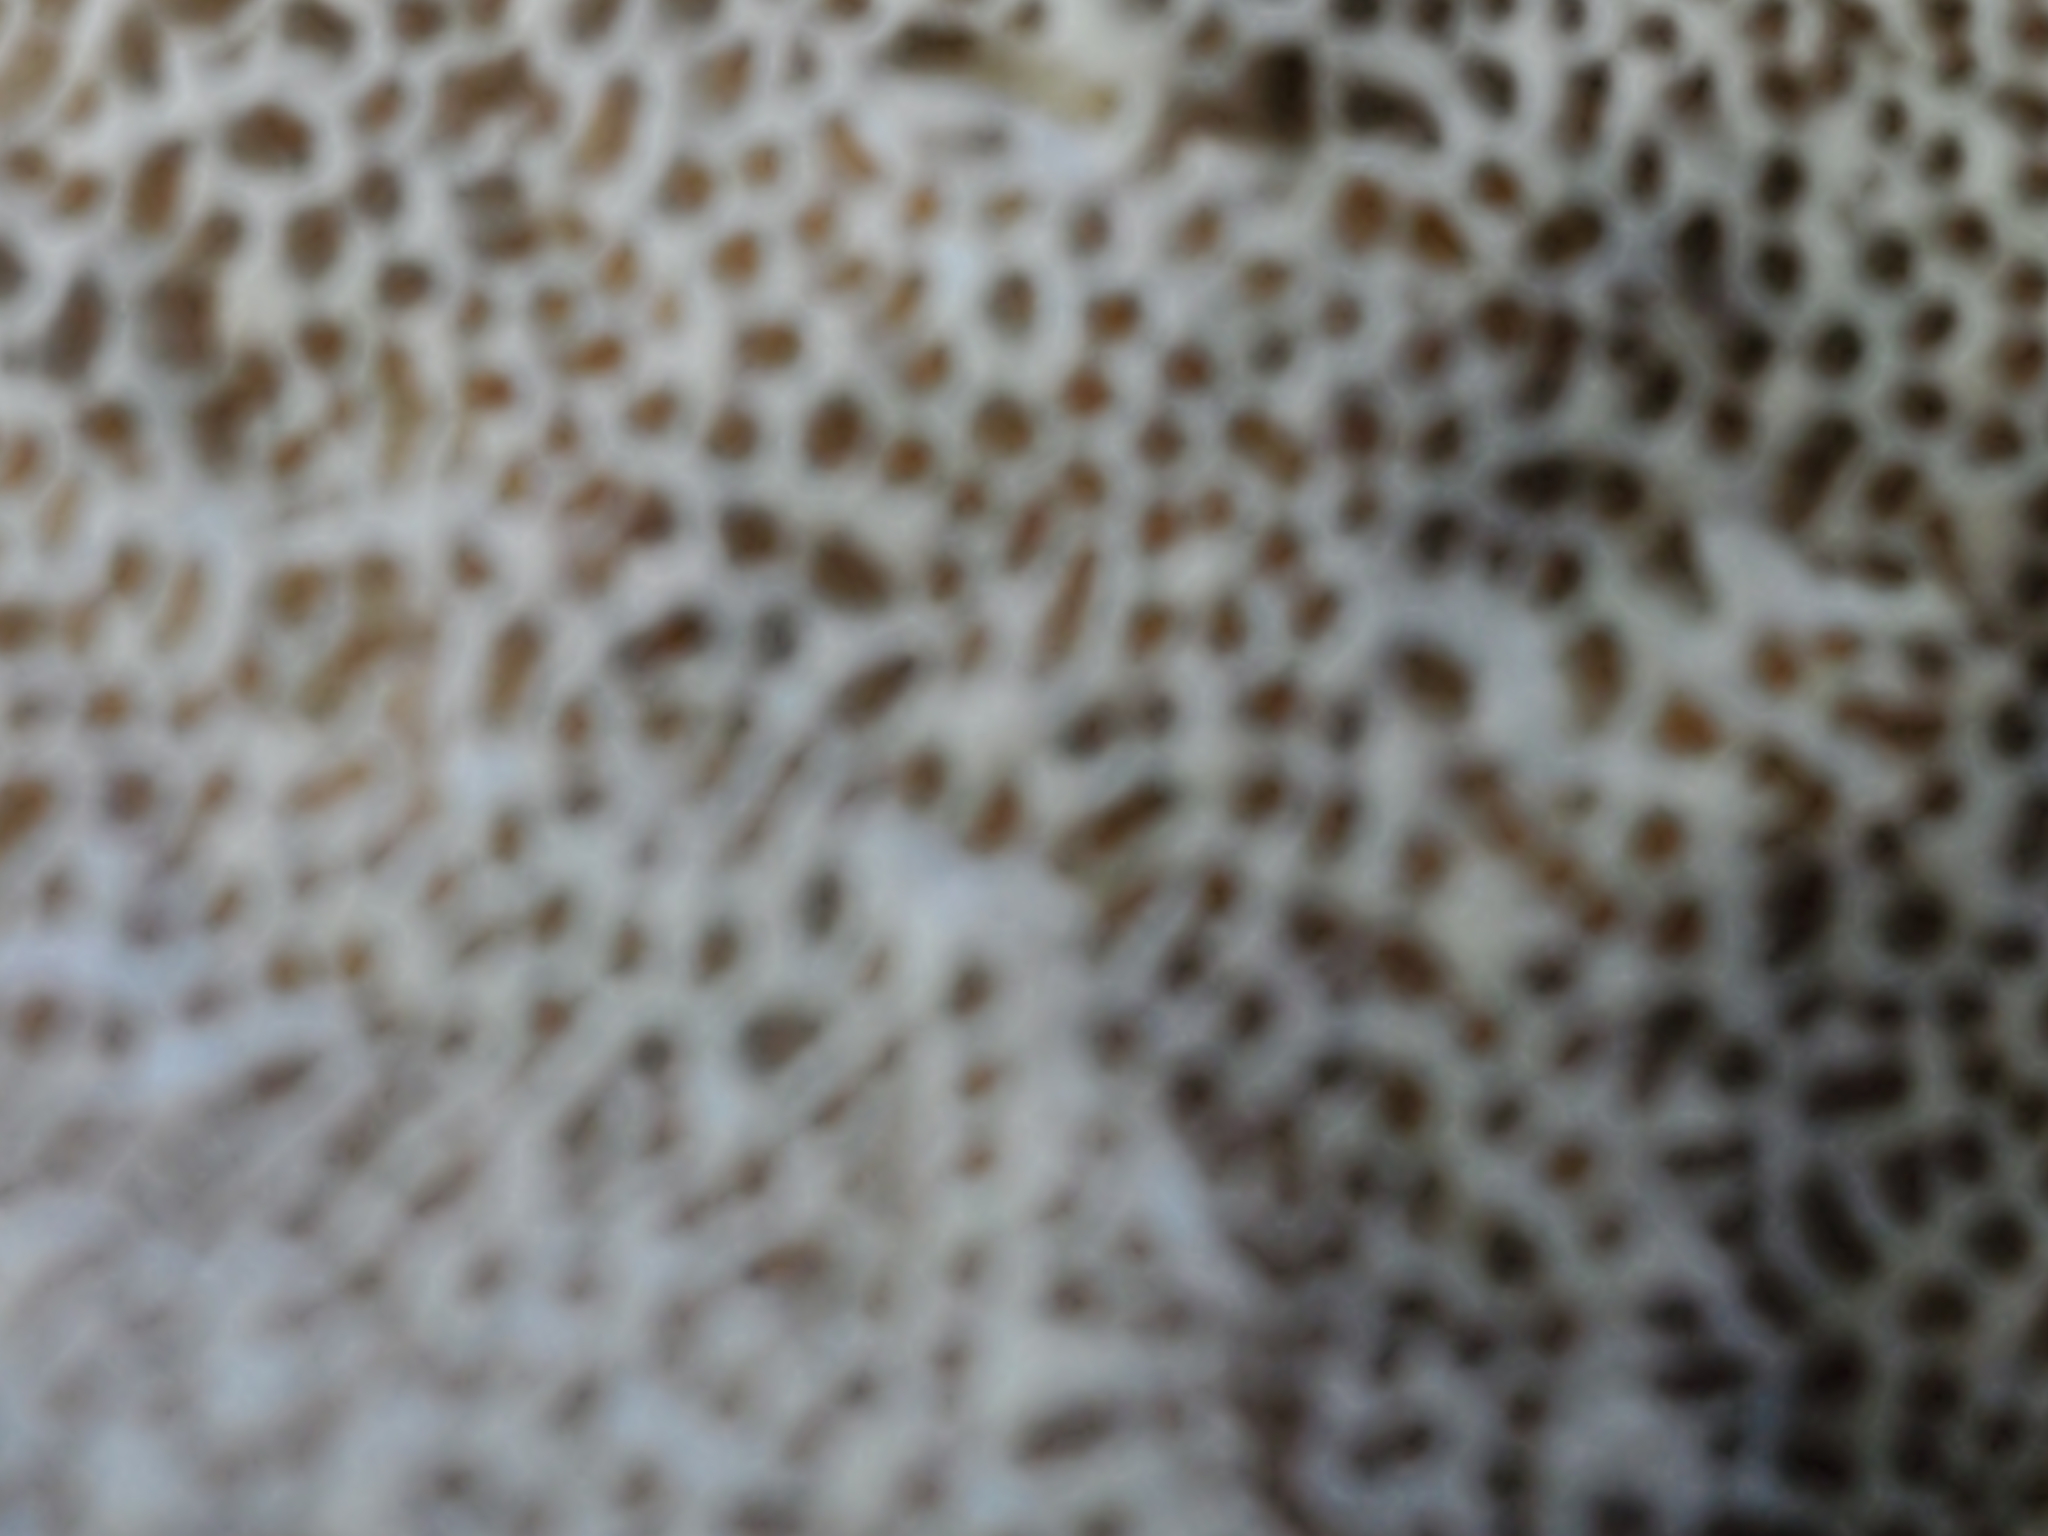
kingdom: Fungi
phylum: Basidiomycota
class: Agaricomycetes
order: Polyporales
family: Polyporaceae
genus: Trametes
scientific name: Trametes hirsuta
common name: Hairy bracket
